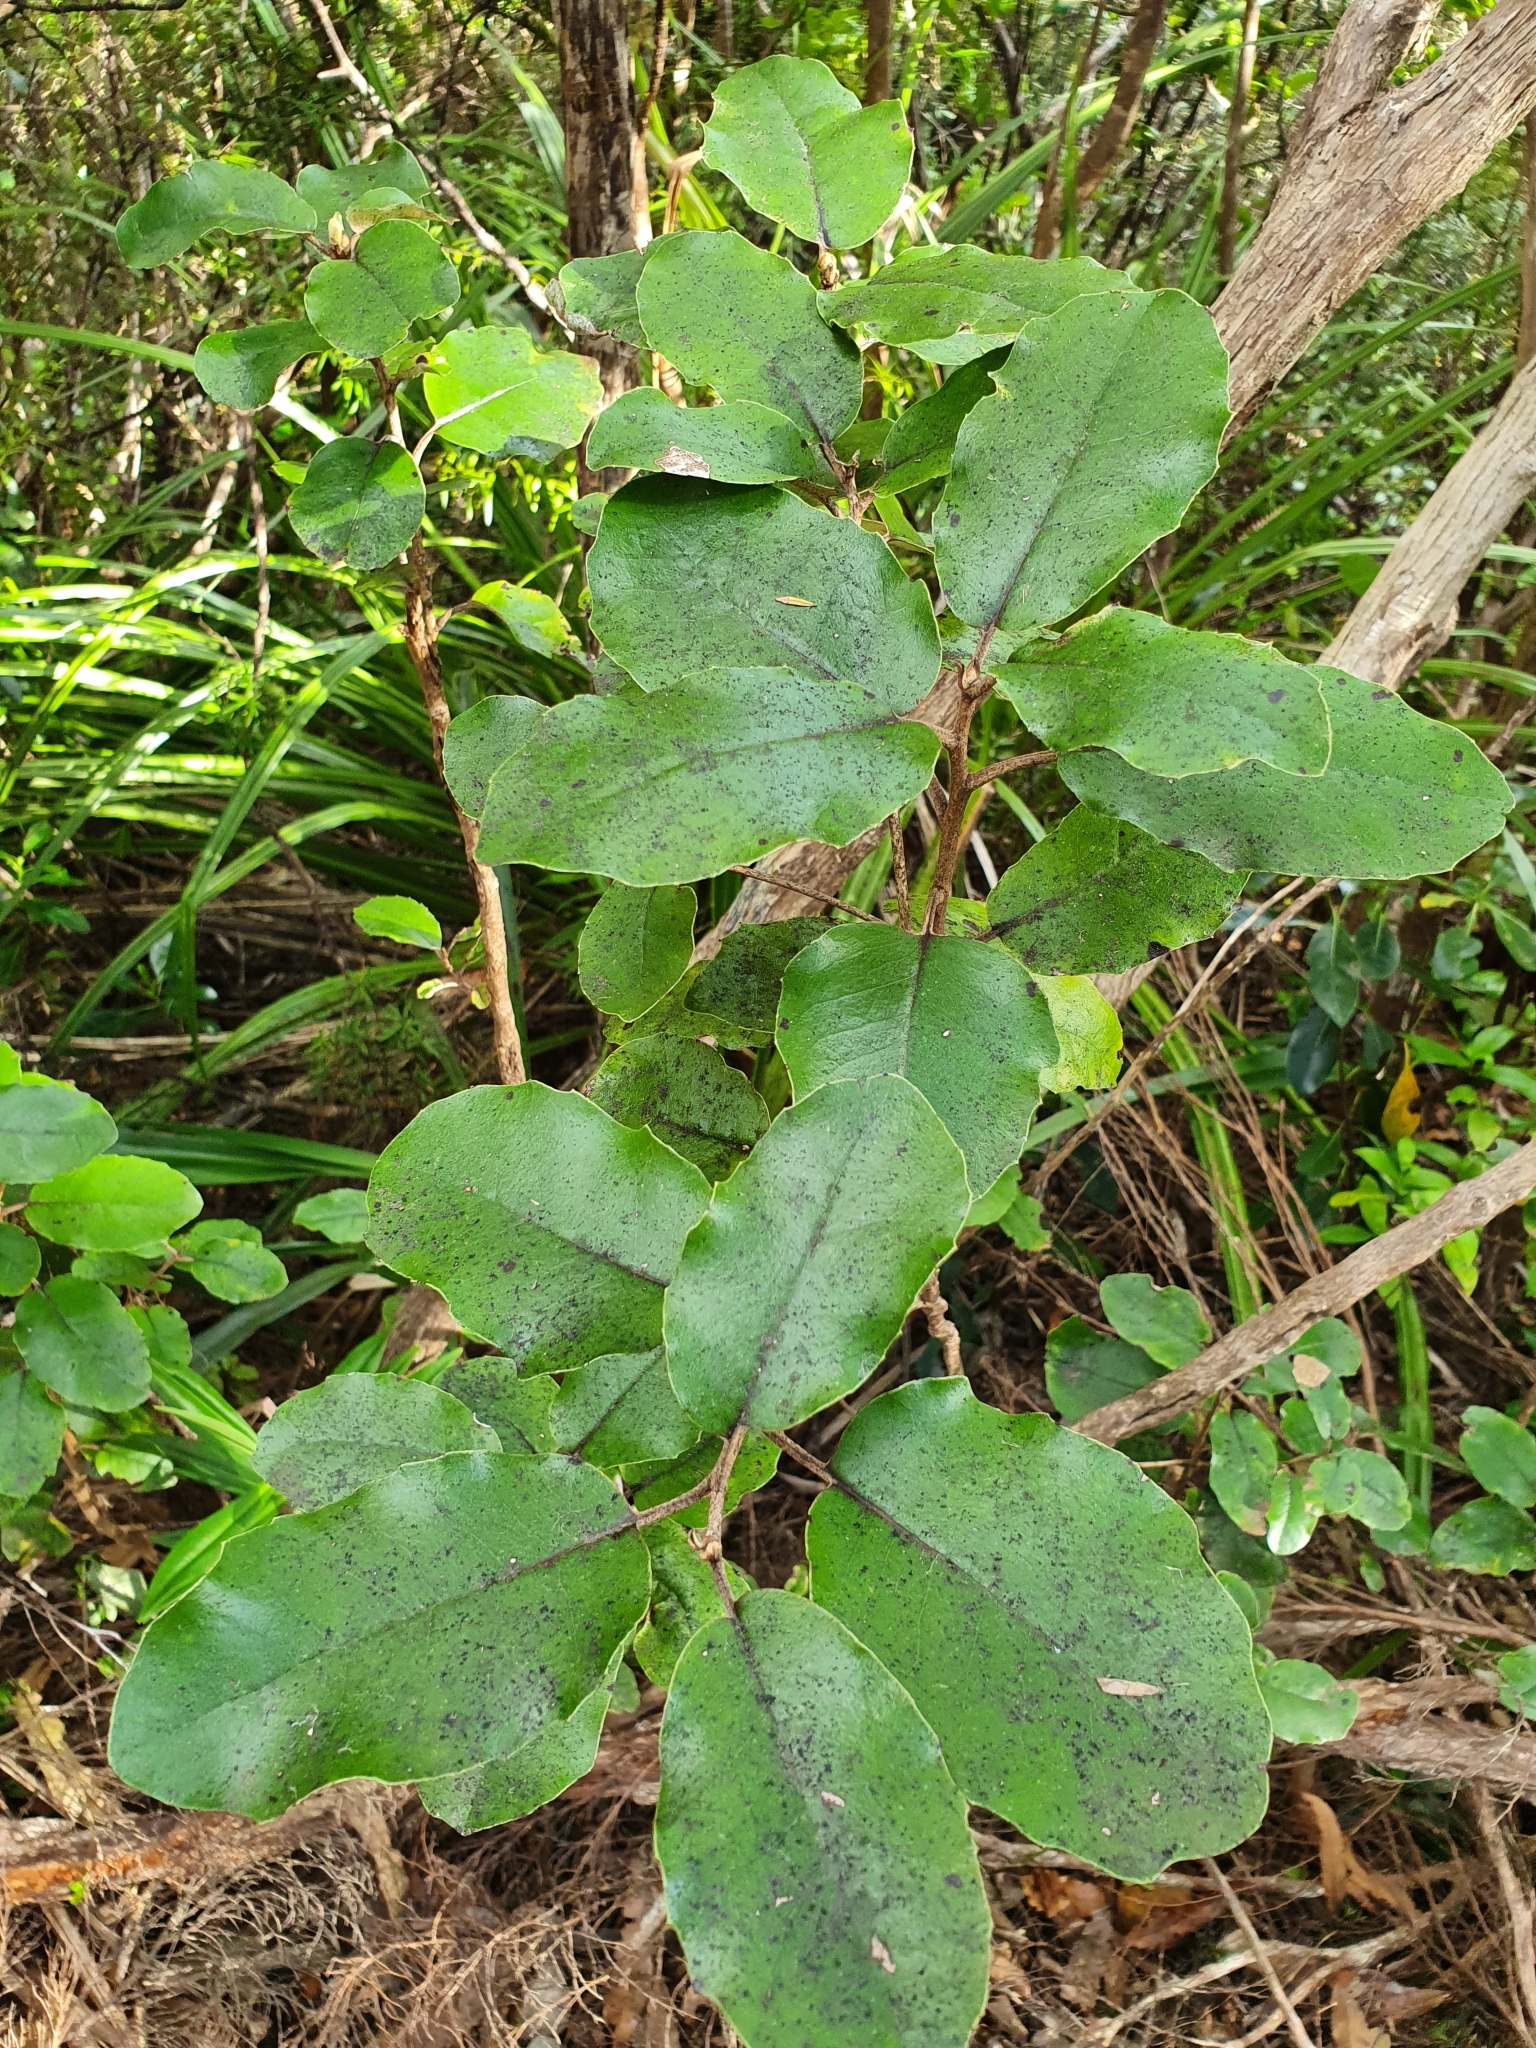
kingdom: Plantae
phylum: Tracheophyta
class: Magnoliopsida
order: Asterales
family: Asteraceae
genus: Olearia
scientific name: Olearia furfuracea
